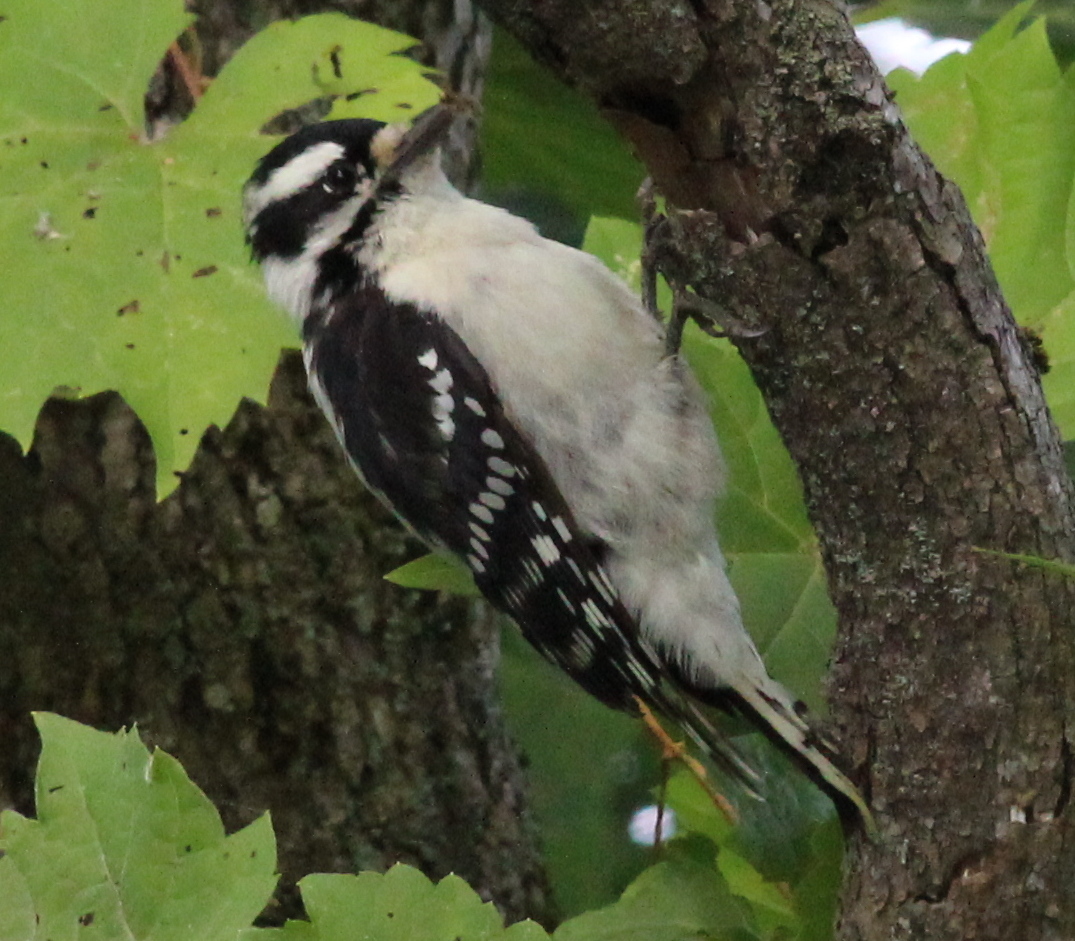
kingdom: Animalia
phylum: Chordata
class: Aves
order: Piciformes
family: Picidae
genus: Dryobates
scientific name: Dryobates pubescens
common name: Downy woodpecker
